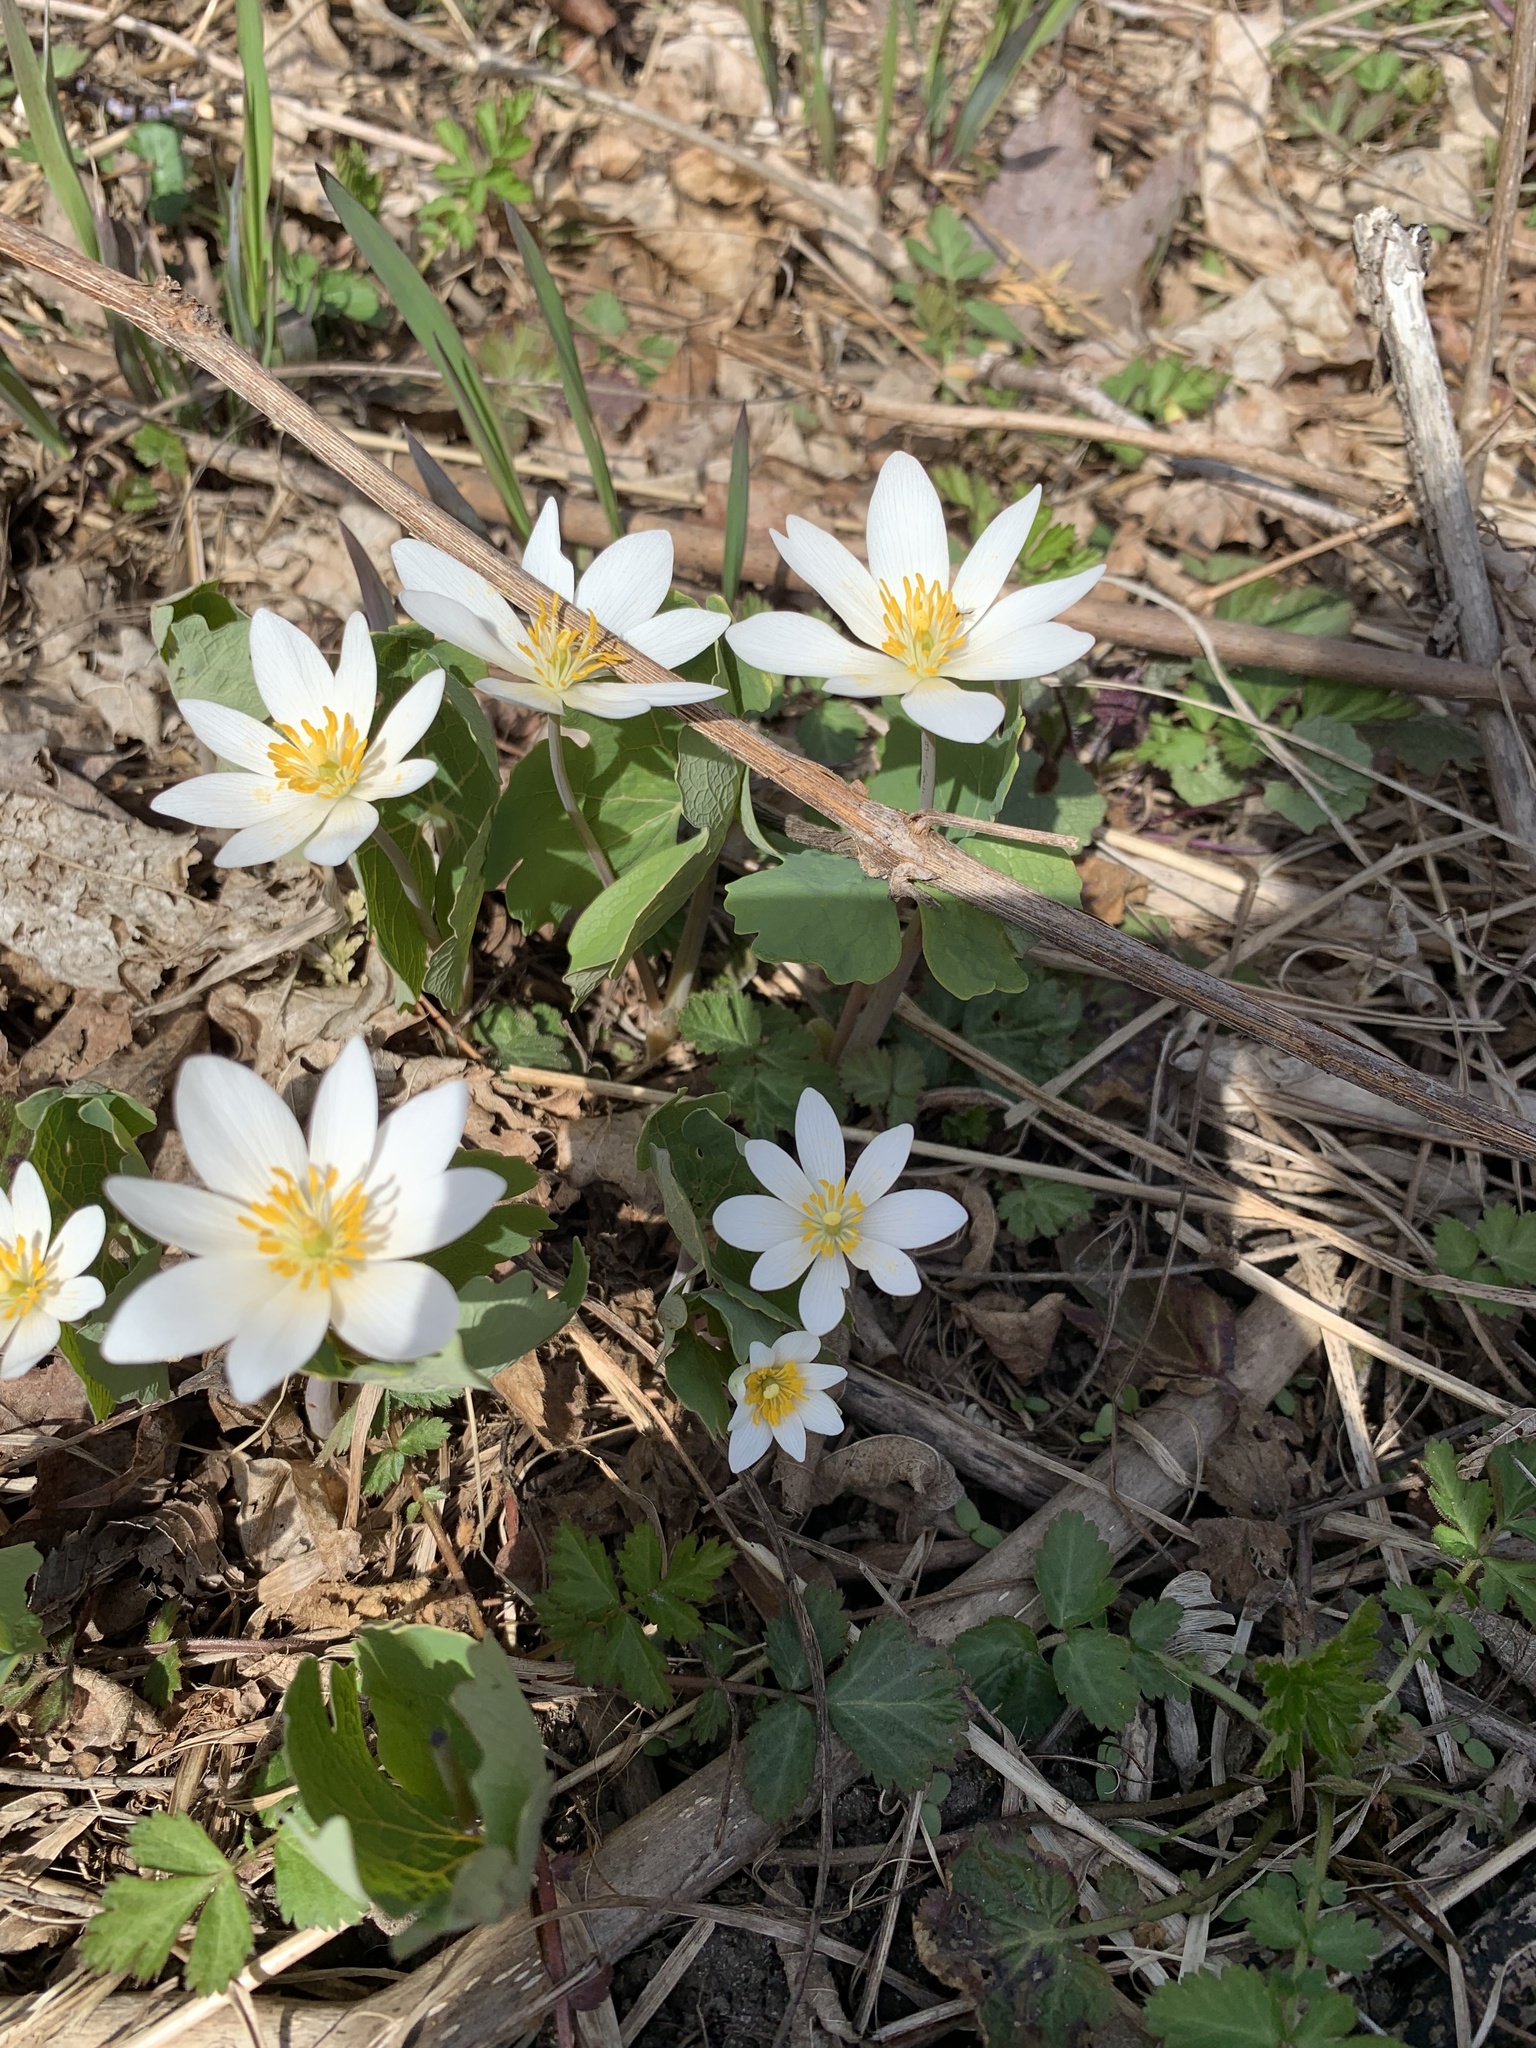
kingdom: Plantae
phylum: Tracheophyta
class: Magnoliopsida
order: Ranunculales
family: Papaveraceae
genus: Sanguinaria
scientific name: Sanguinaria canadensis
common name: Bloodroot
